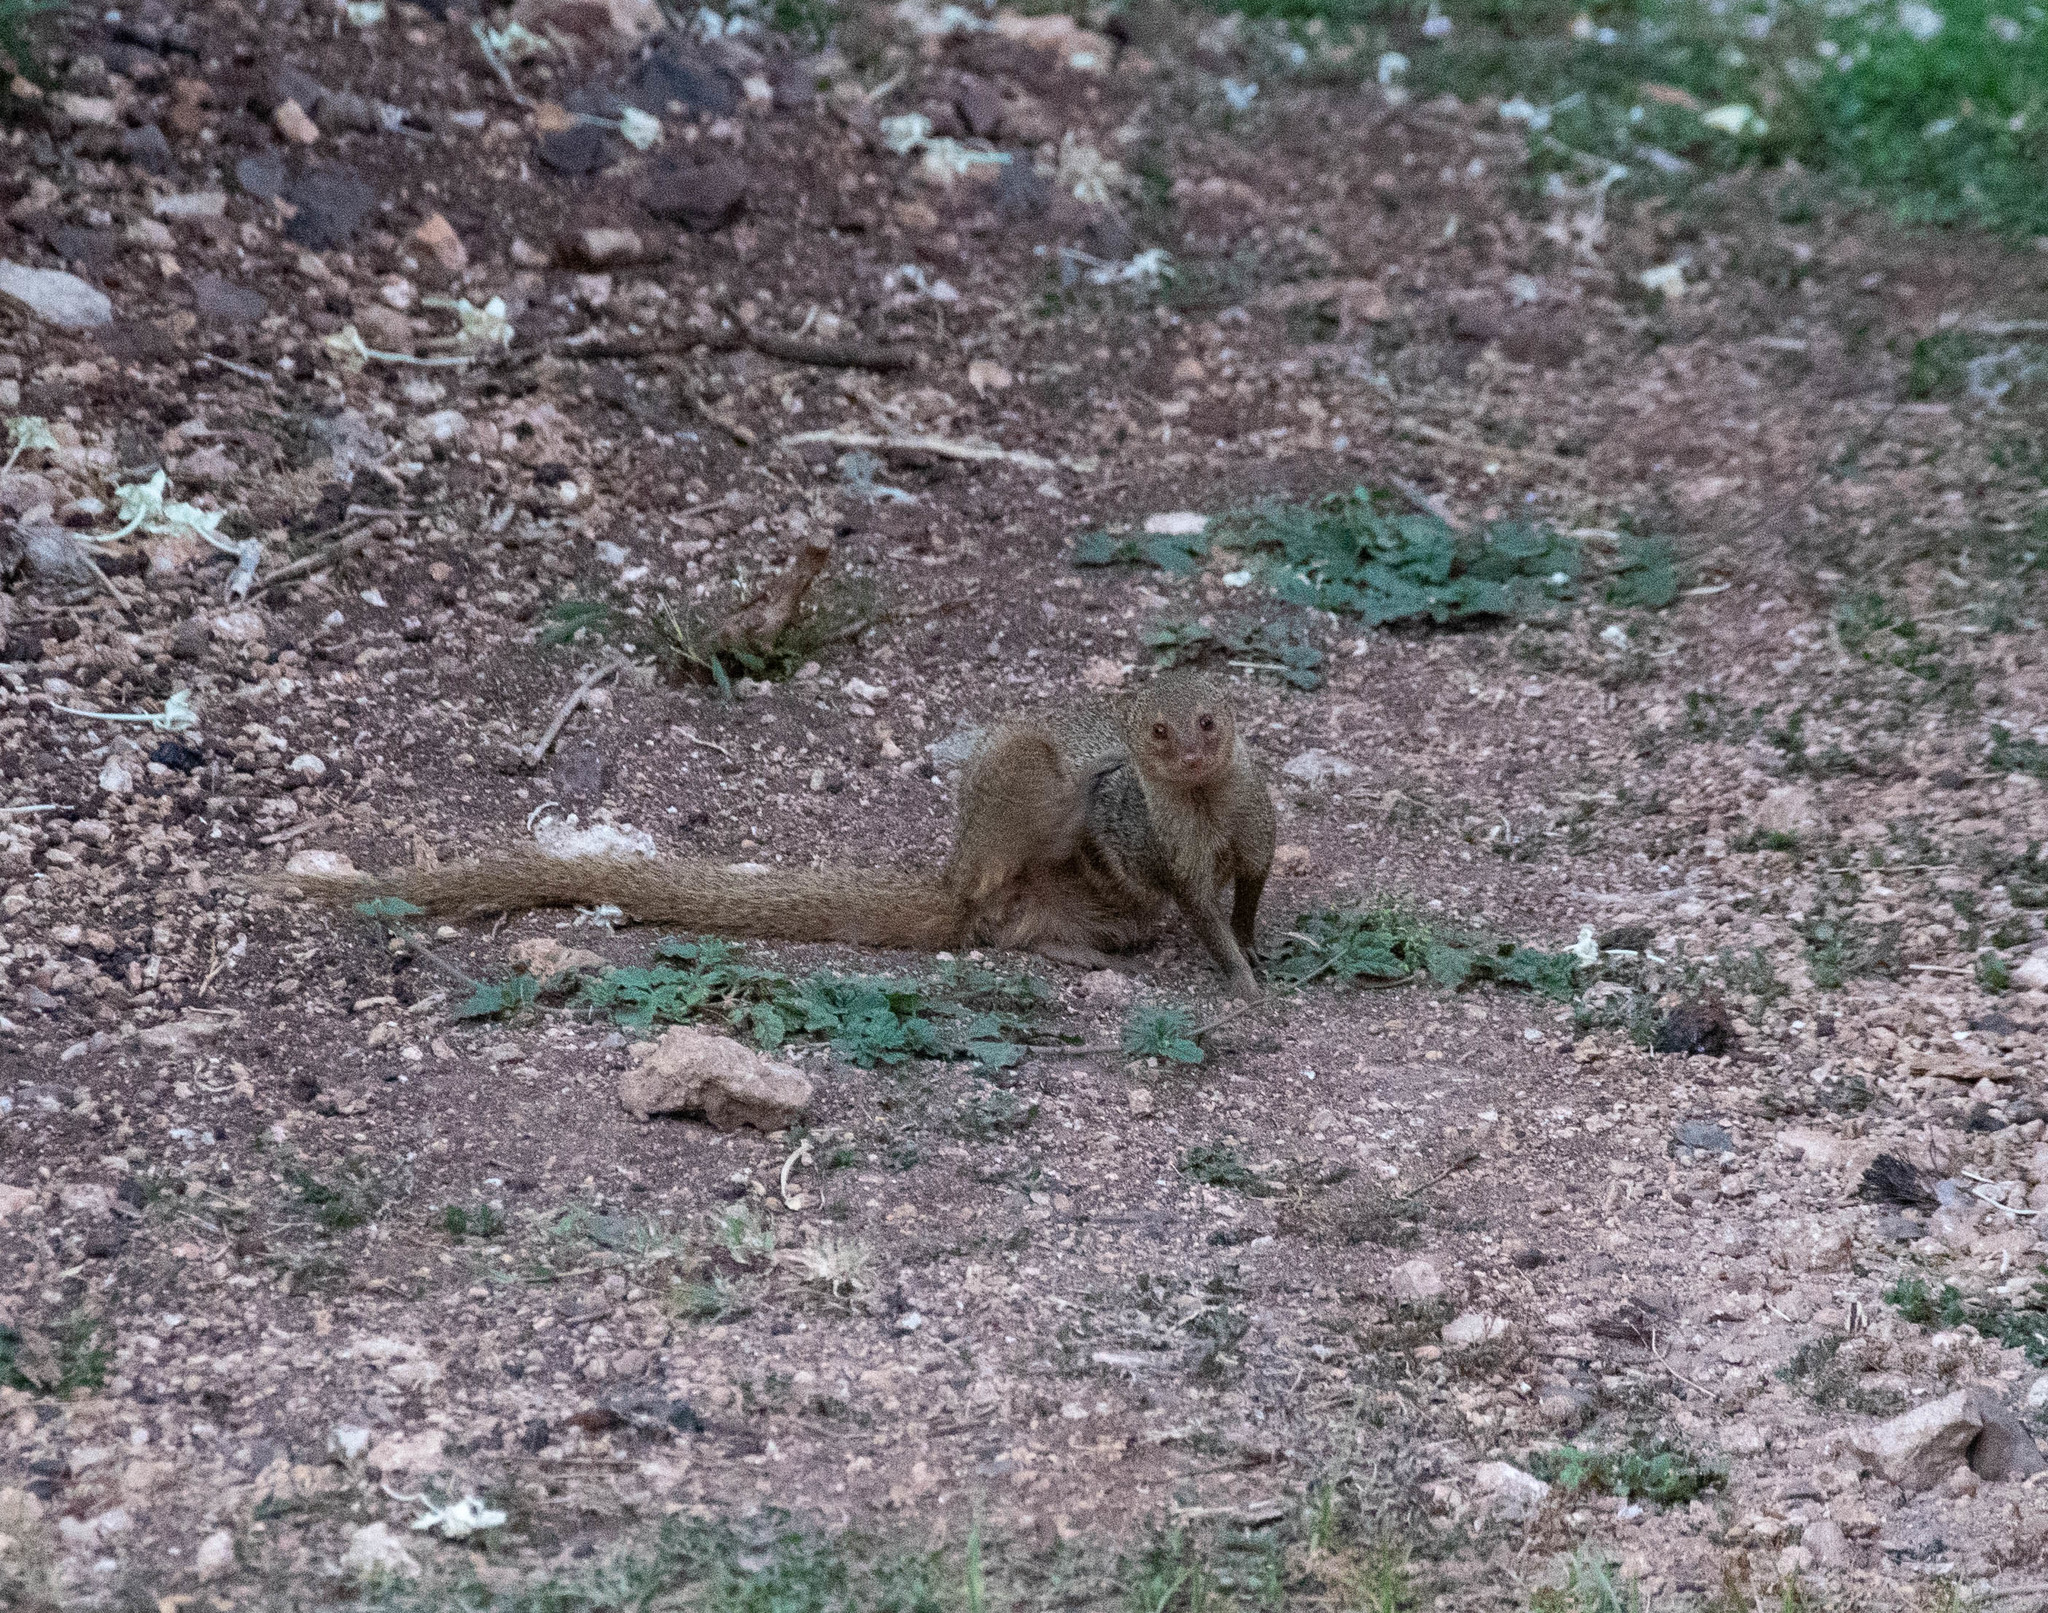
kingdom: Animalia
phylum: Chordata
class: Mammalia
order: Carnivora
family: Herpestidae
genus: Herpestes
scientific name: Herpestes javanicus
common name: Small asian mongoose
